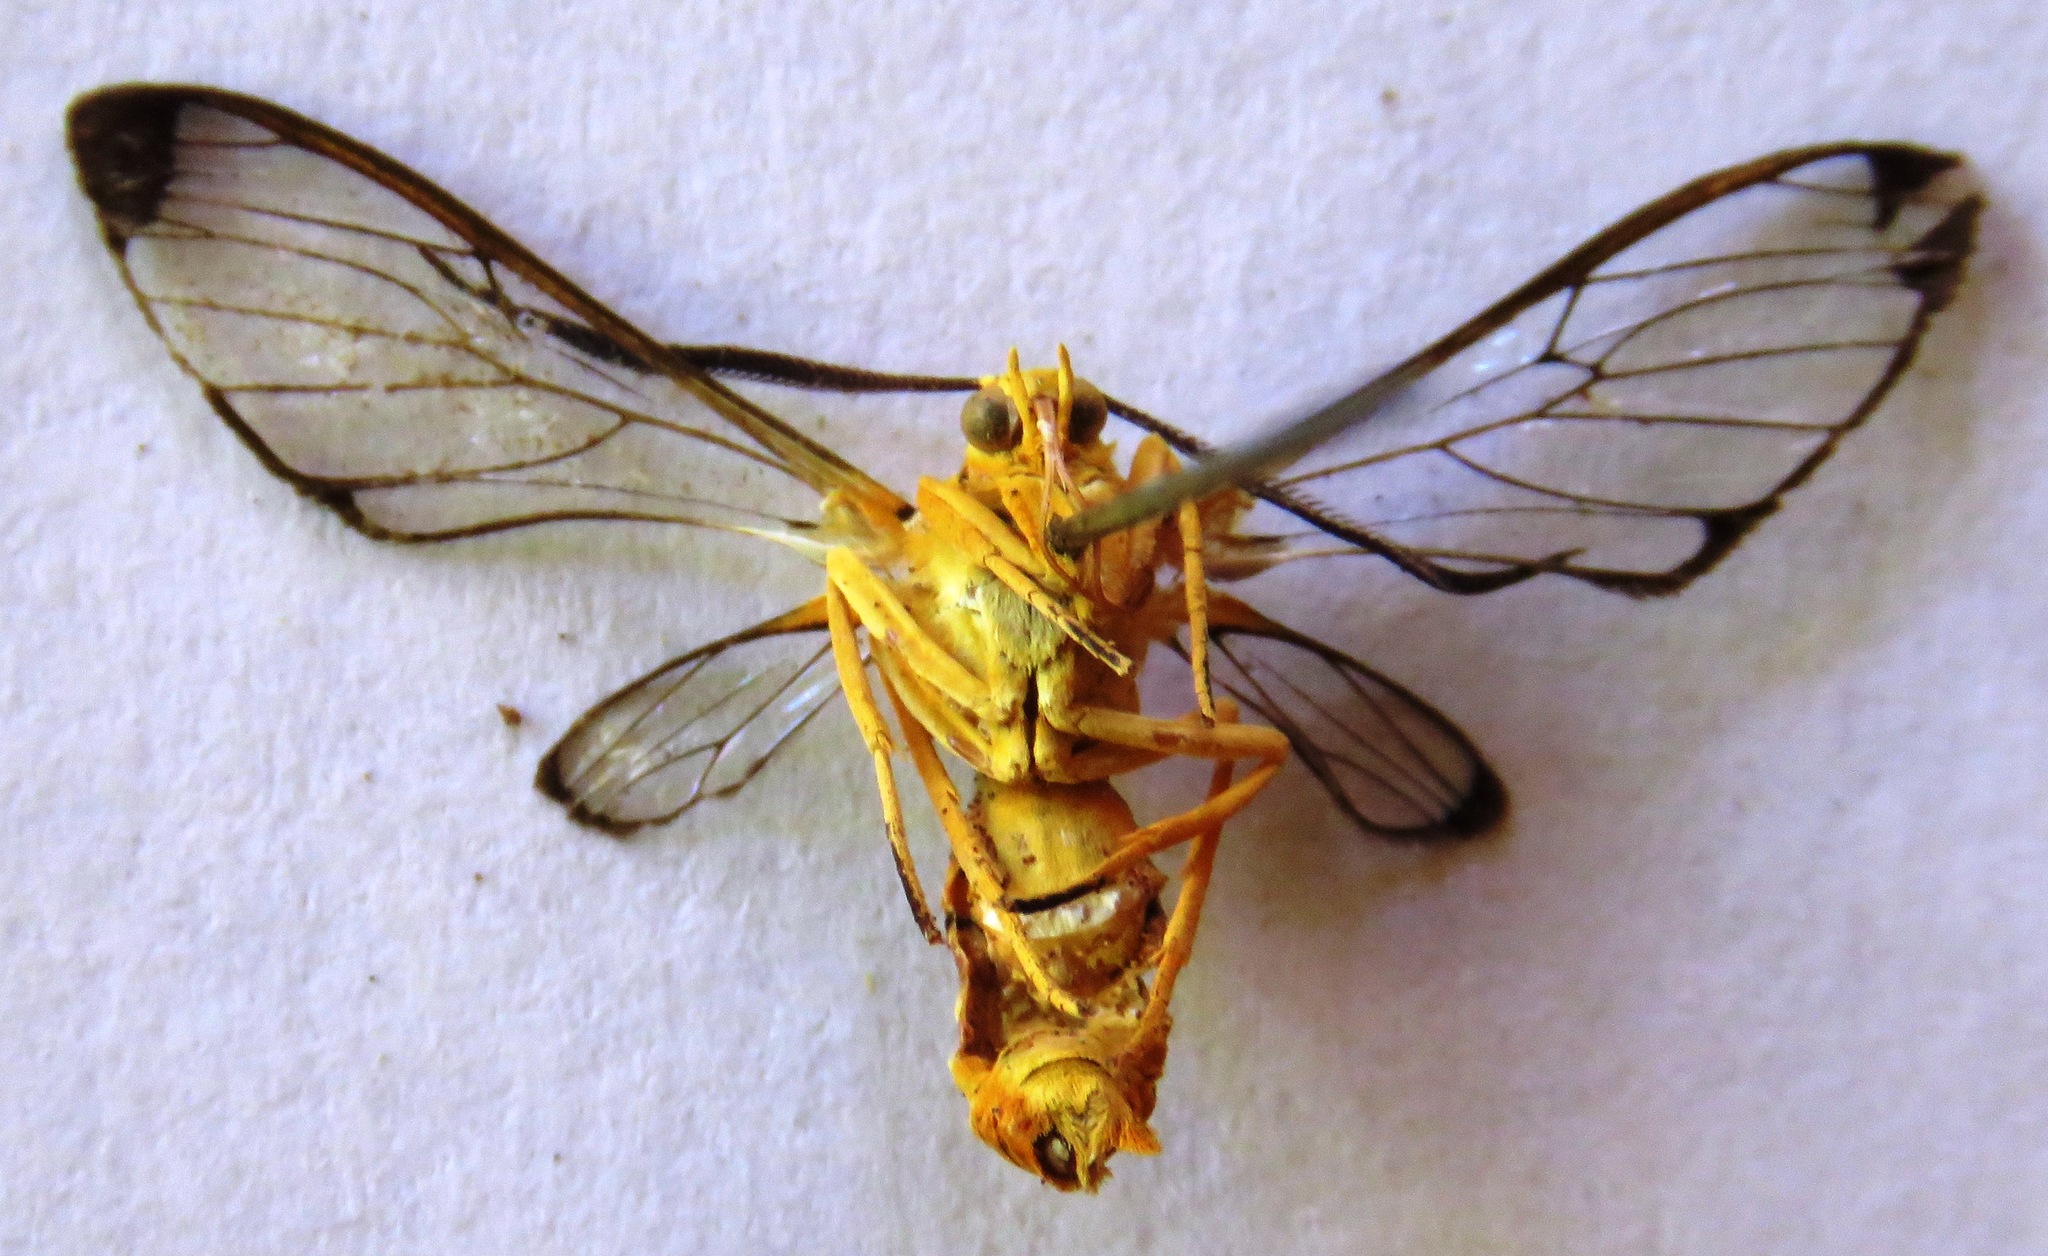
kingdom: Animalia
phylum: Arthropoda
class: Insecta
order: Lepidoptera
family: Erebidae
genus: Isanthrene
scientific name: Isanthrene felderi
